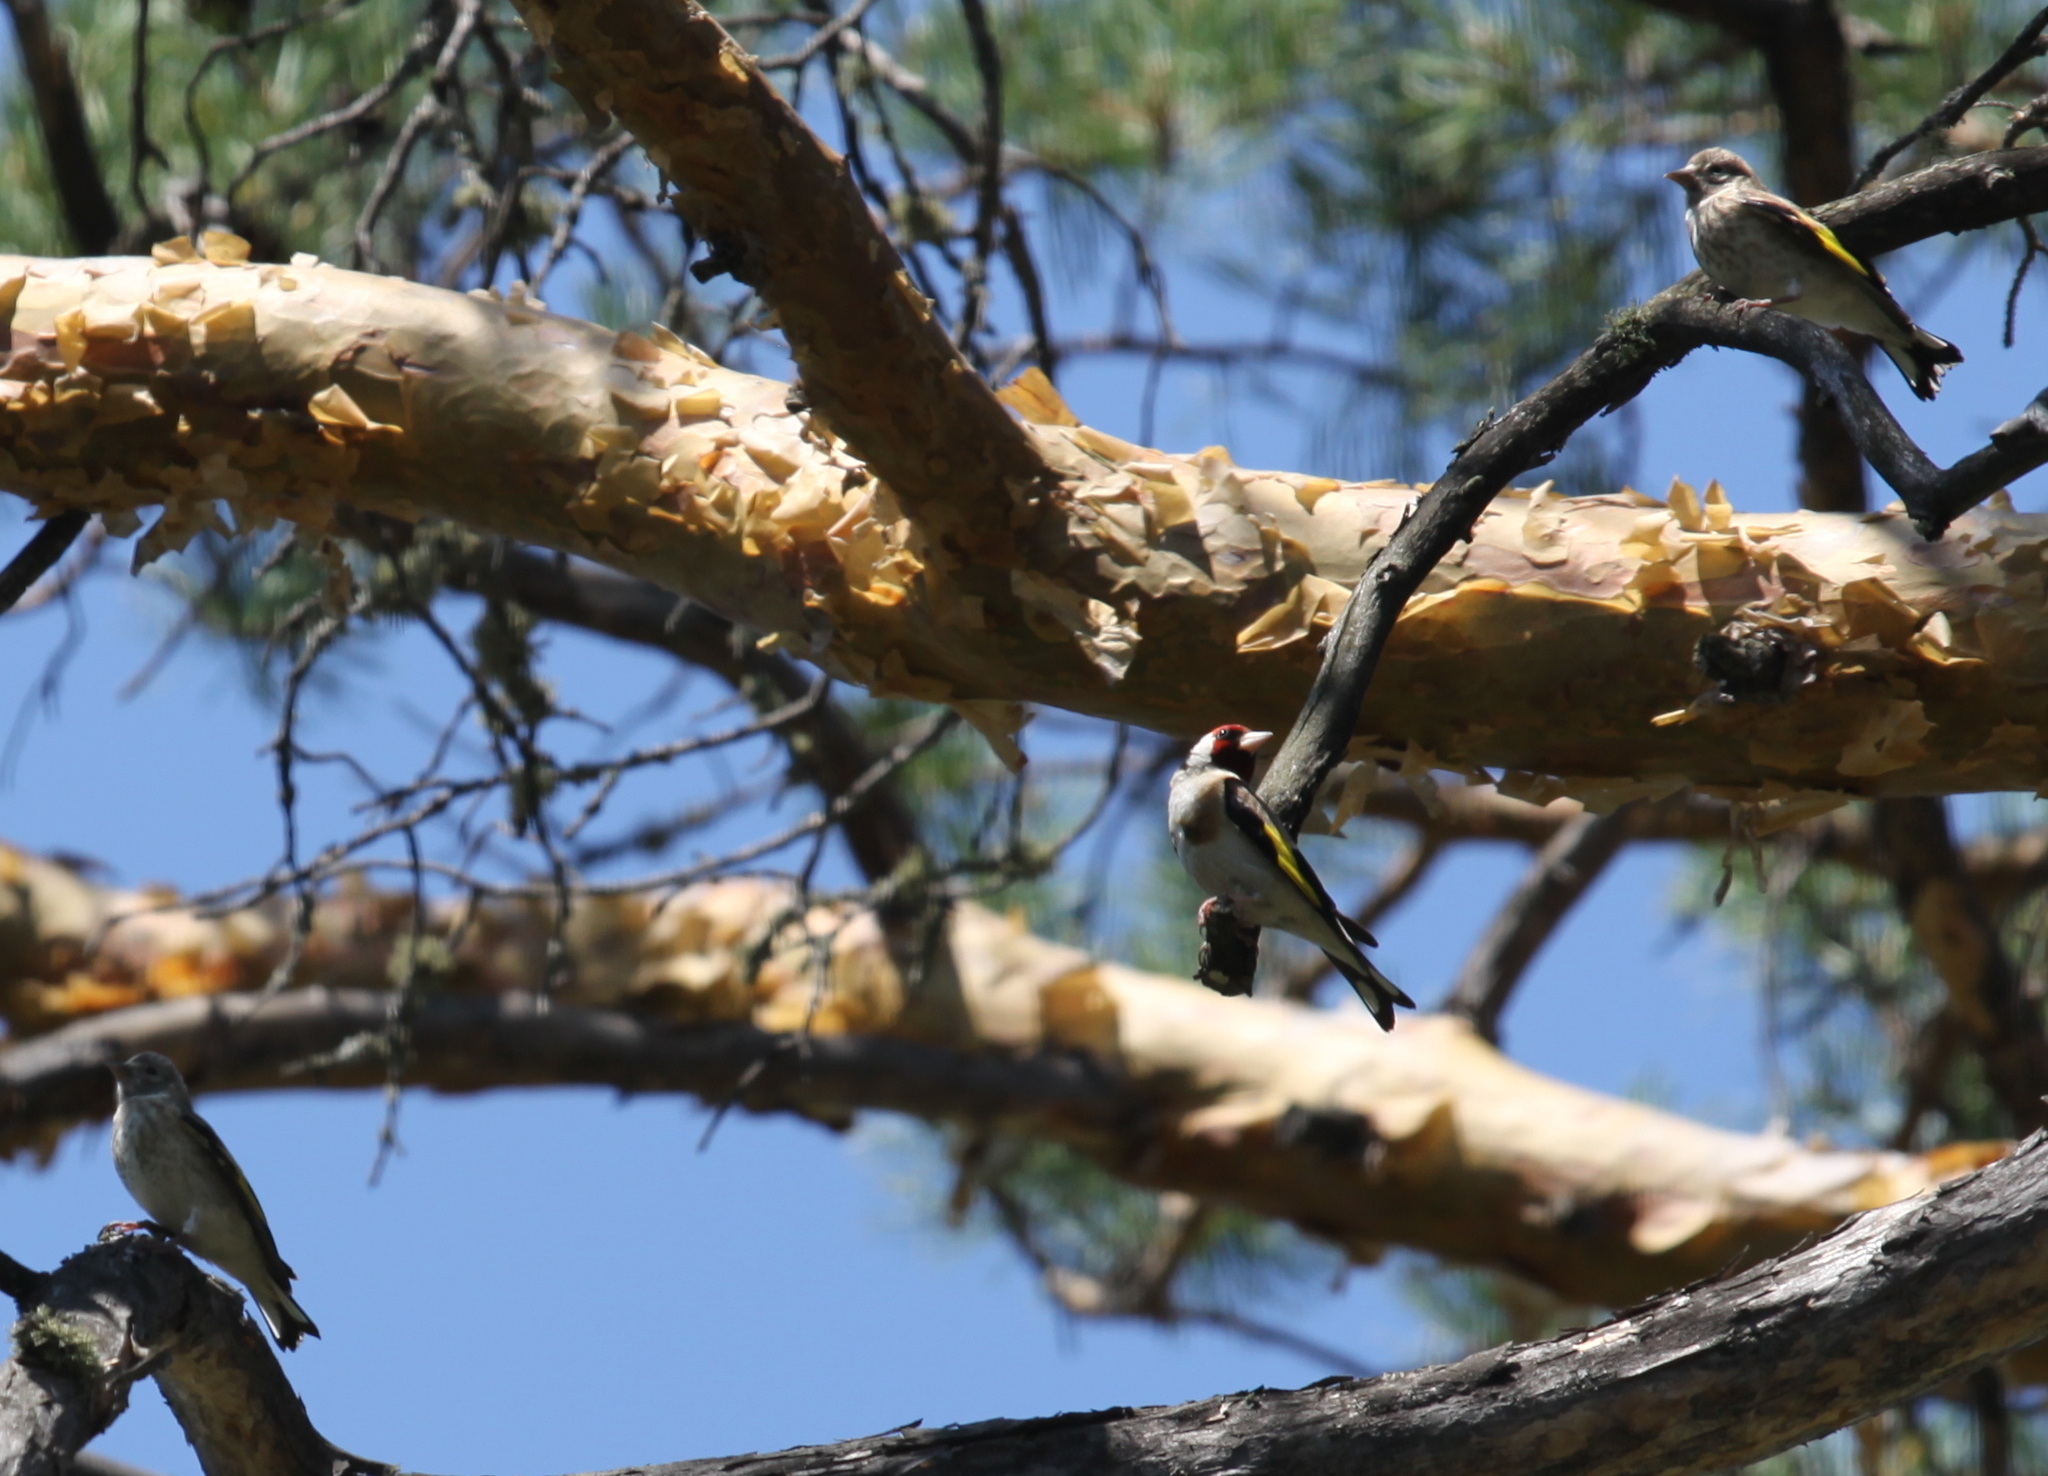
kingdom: Animalia
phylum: Chordata
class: Aves
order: Passeriformes
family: Fringillidae
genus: Carduelis
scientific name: Carduelis carduelis
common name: European goldfinch
